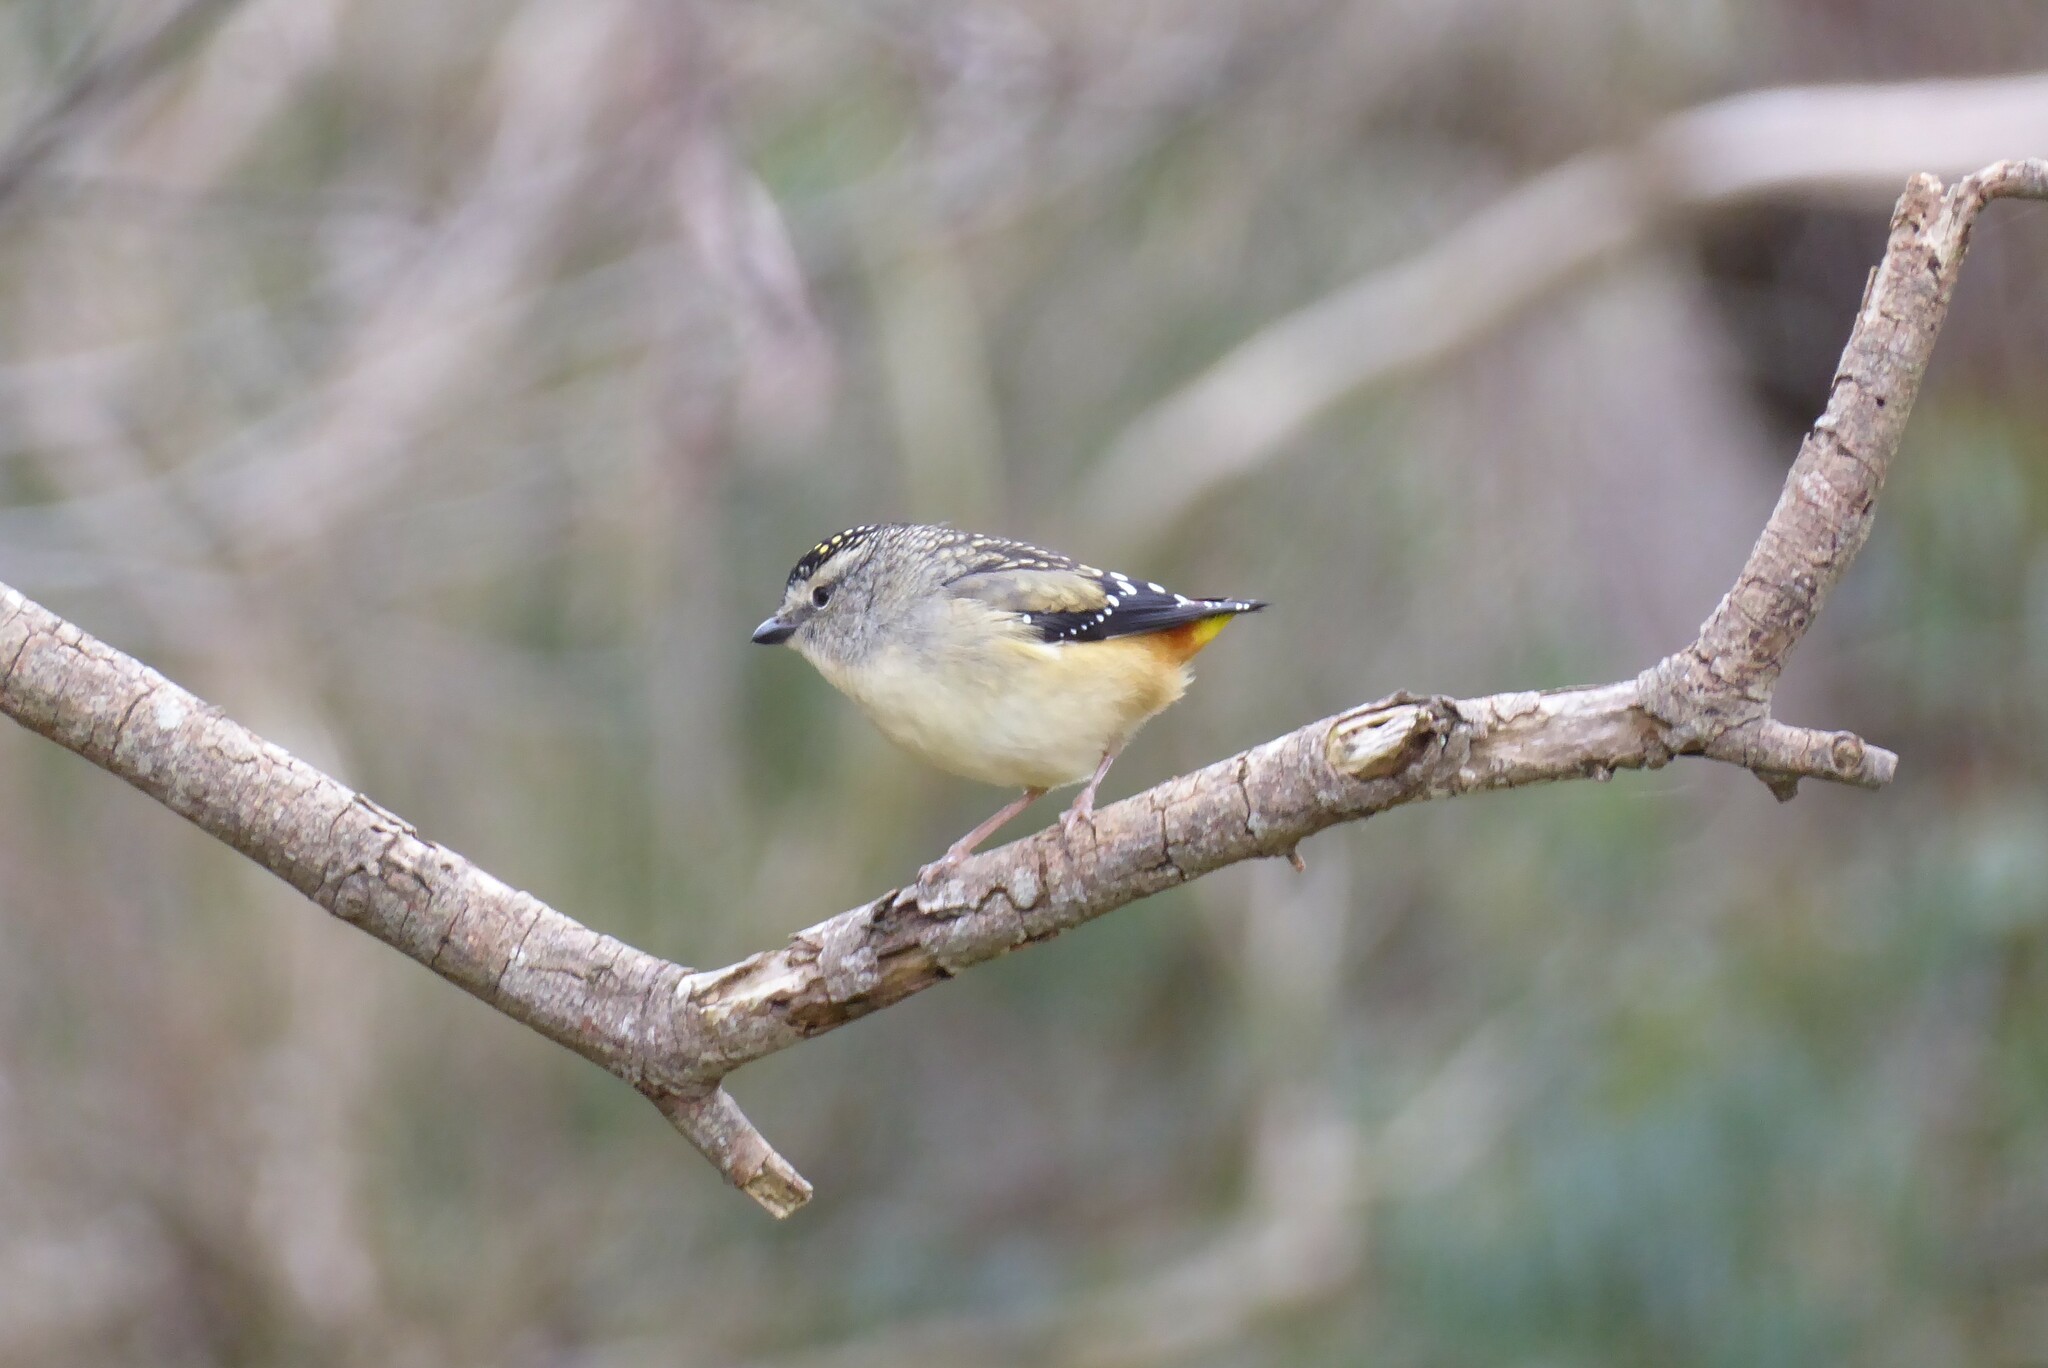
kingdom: Animalia
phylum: Chordata
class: Aves
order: Passeriformes
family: Pardalotidae
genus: Pardalotus
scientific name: Pardalotus punctatus
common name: Spotted pardalote
